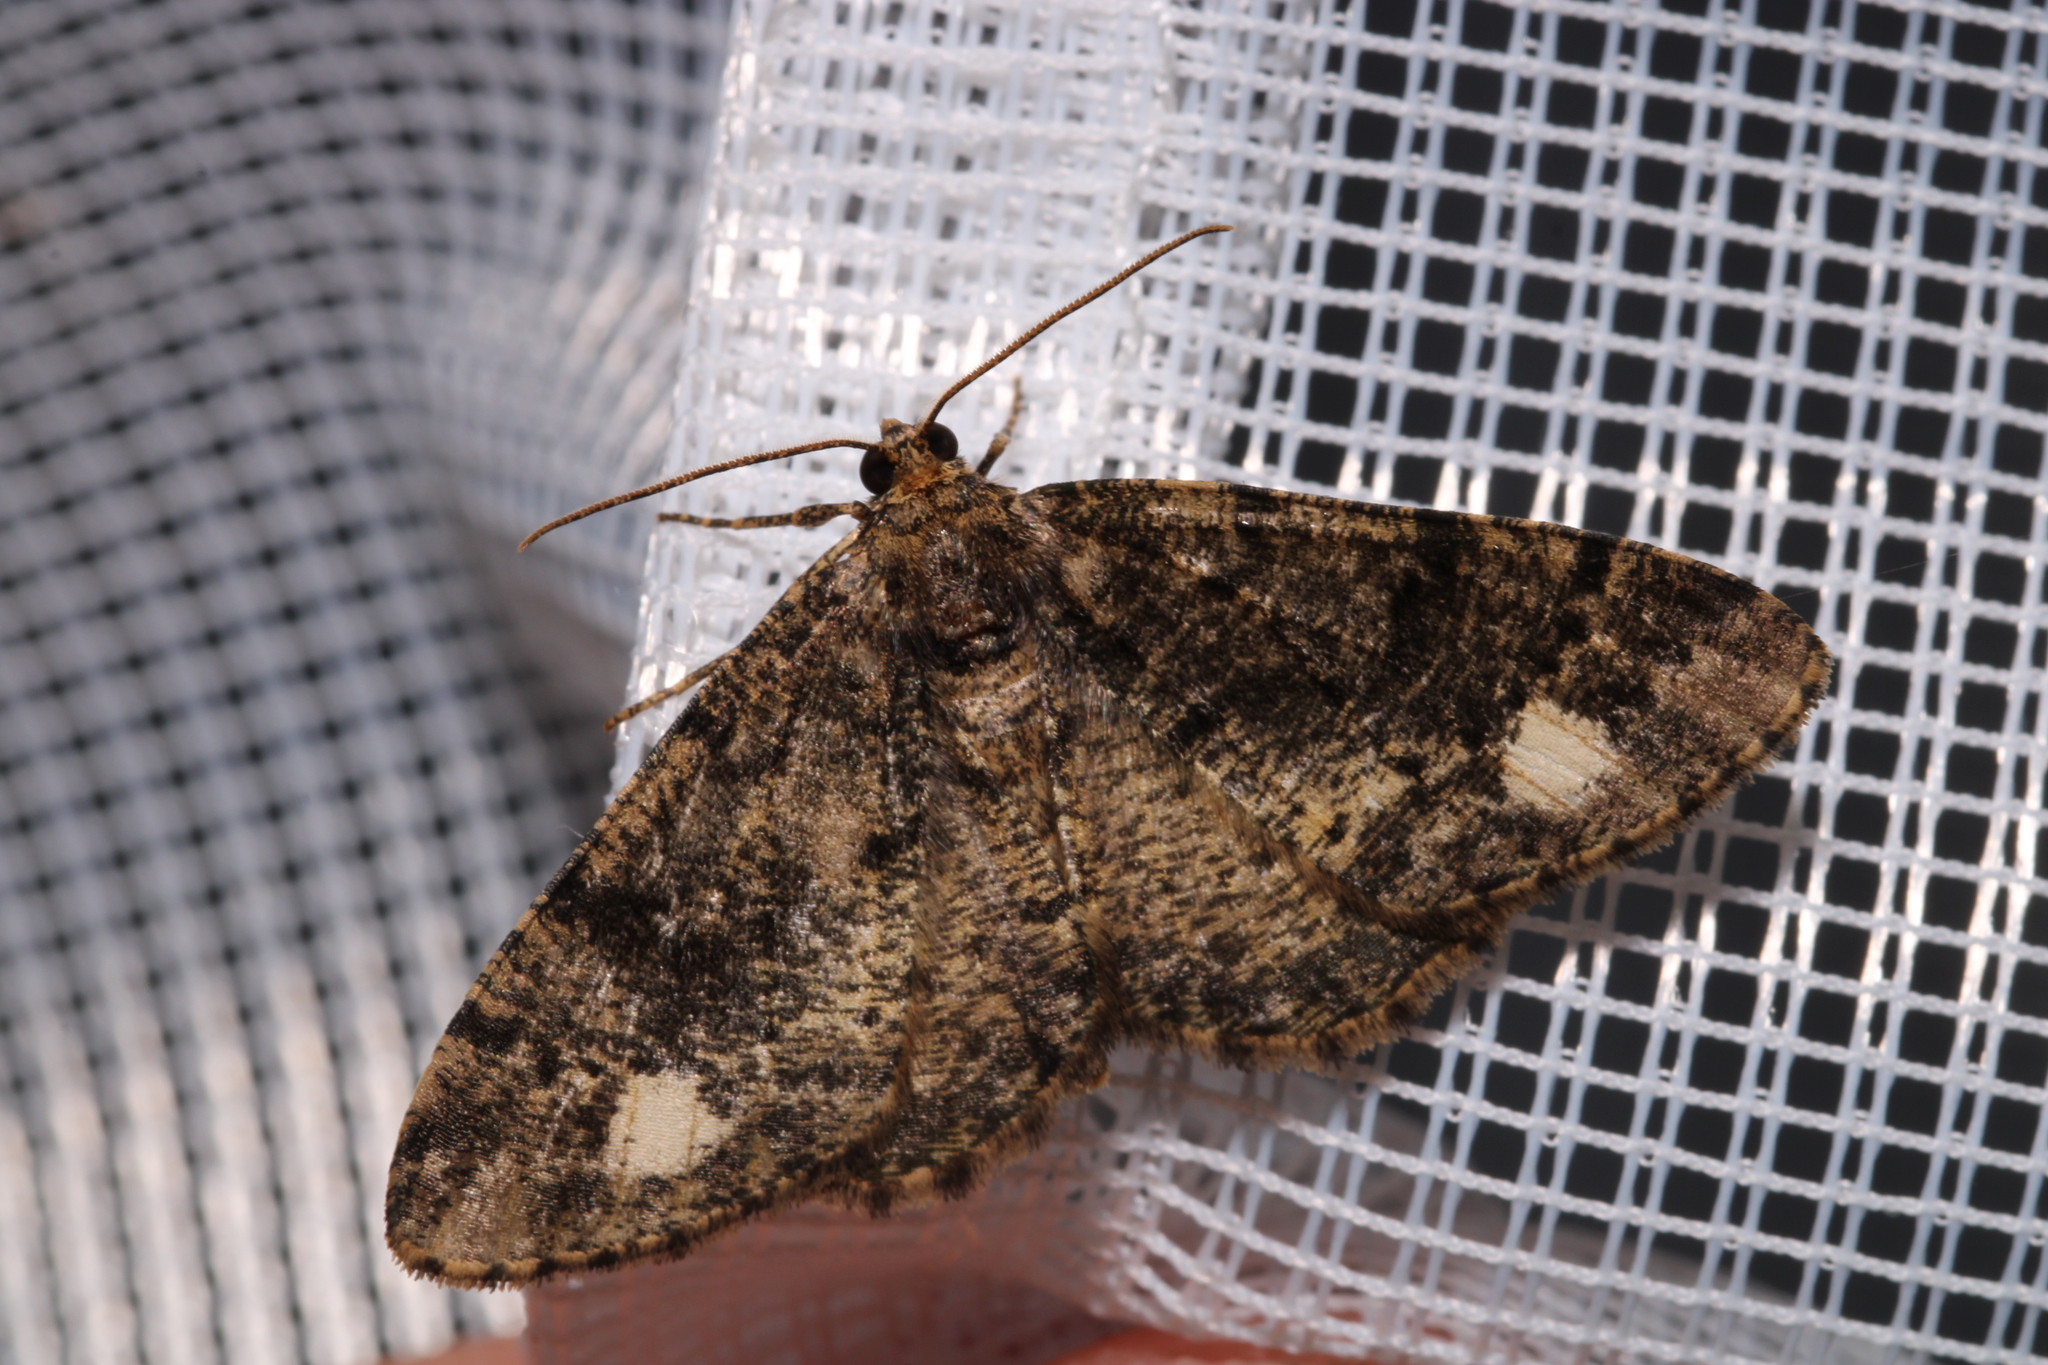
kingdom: Animalia
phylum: Arthropoda
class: Insecta
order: Lepidoptera
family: Geometridae
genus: Parectropis
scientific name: Parectropis similaria
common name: Brindled white-spot
